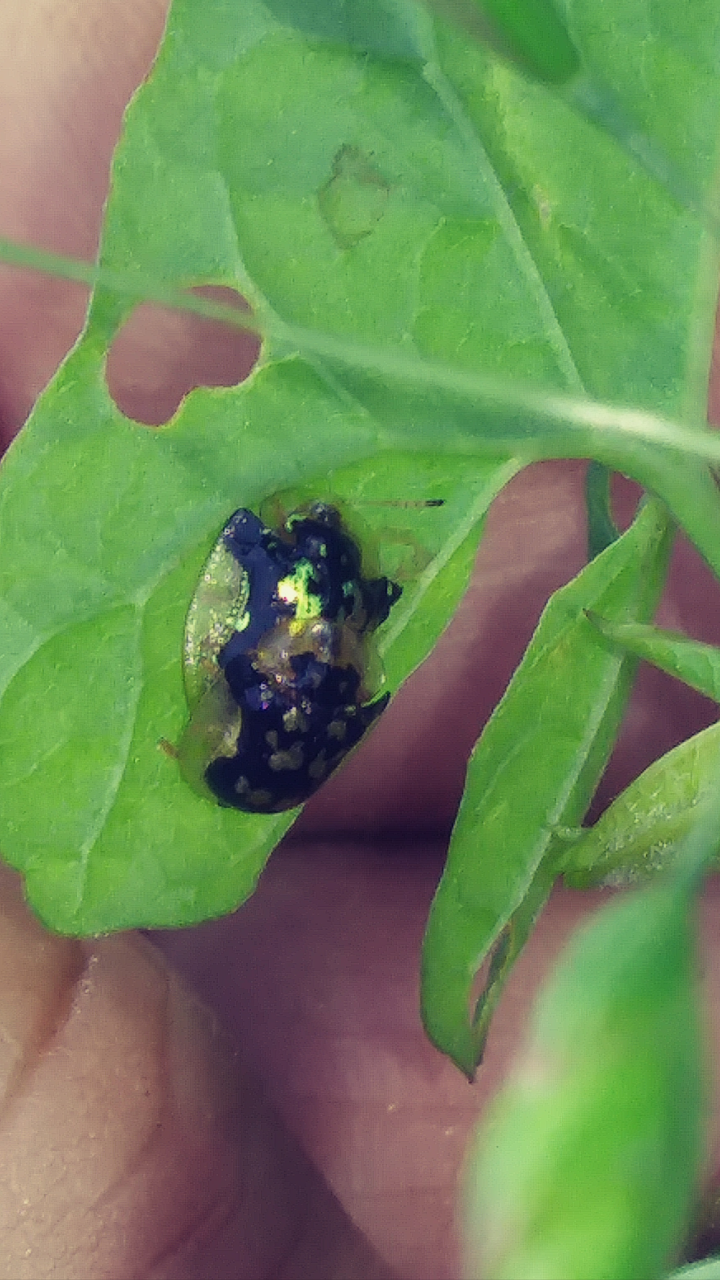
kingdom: Animalia
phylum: Arthropoda
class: Insecta
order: Coleoptera
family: Chrysomelidae
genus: Deloyala
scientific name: Deloyala guttata
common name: Mottled tortoise beetle
